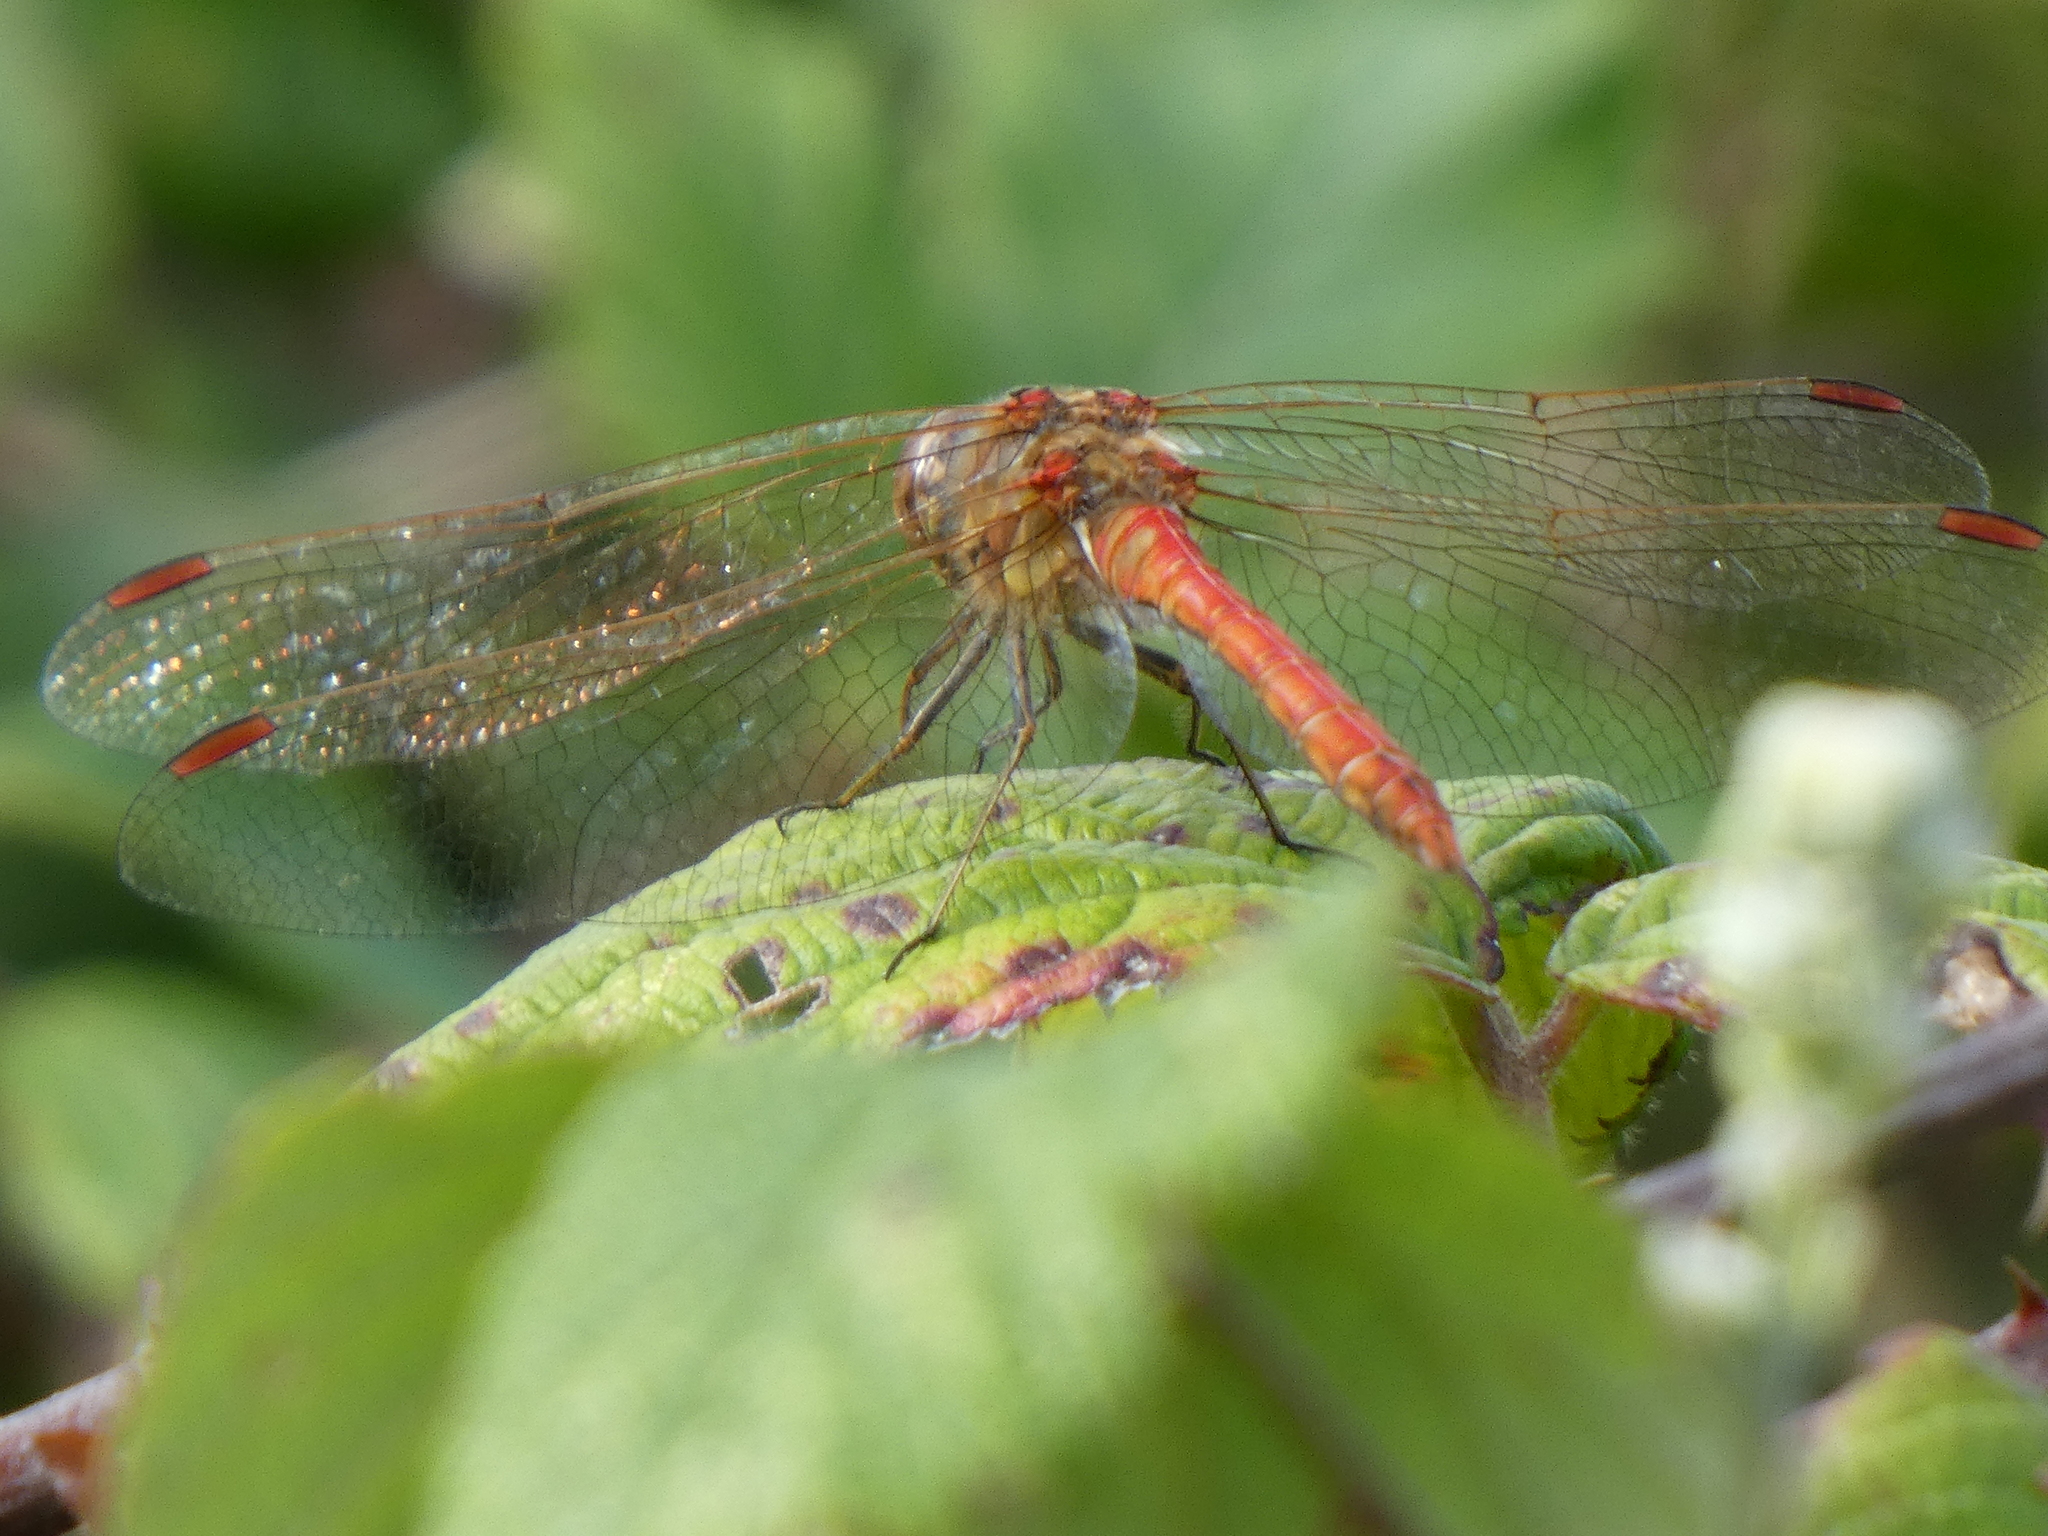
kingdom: Animalia
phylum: Arthropoda
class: Insecta
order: Odonata
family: Libellulidae
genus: Sympetrum
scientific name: Sympetrum striolatum
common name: Common darter
